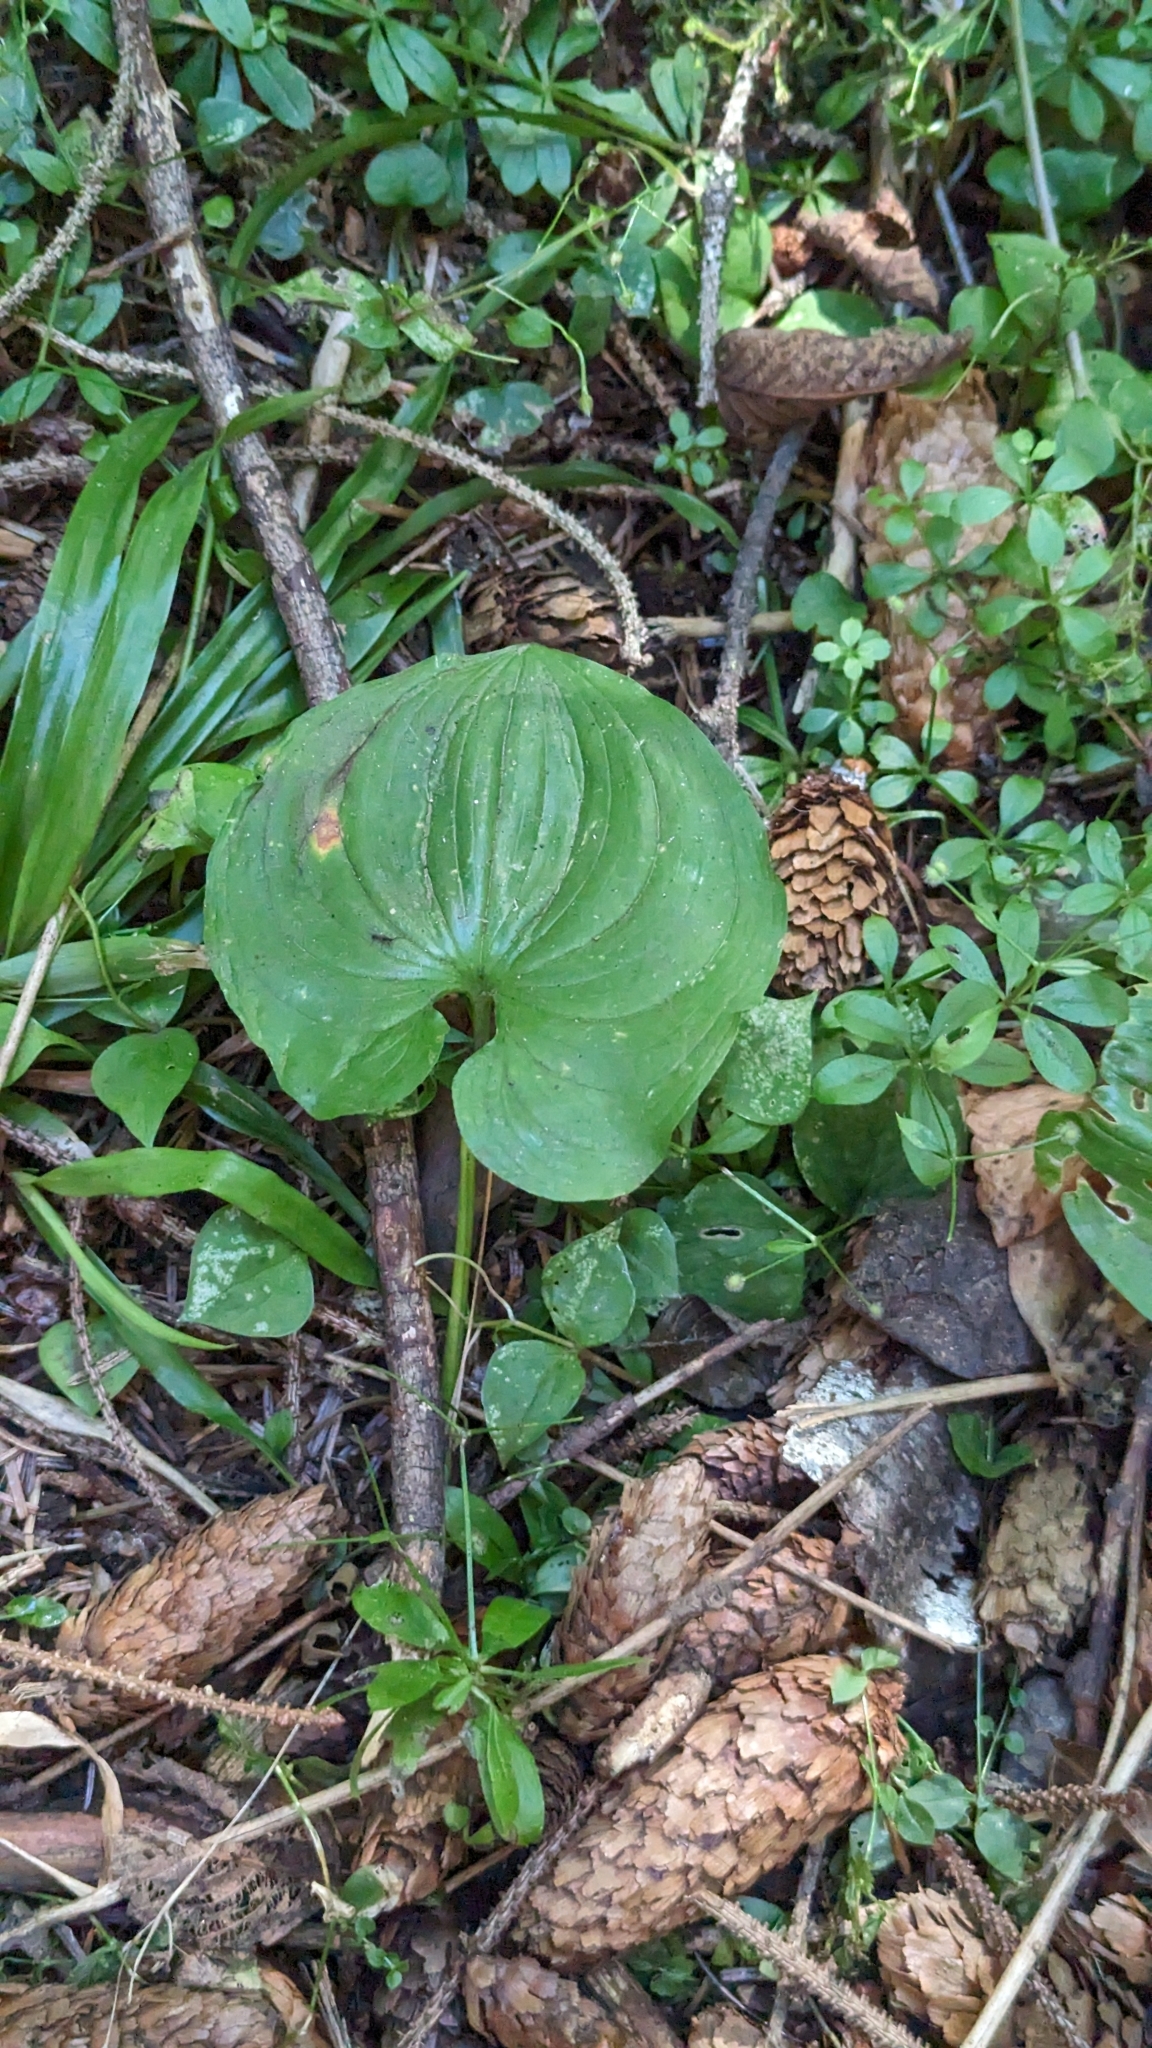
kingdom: Plantae
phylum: Tracheophyta
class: Liliopsida
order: Asparagales
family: Asparagaceae
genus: Maianthemum
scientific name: Maianthemum dilatatum
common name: False lily-of-the-valley
